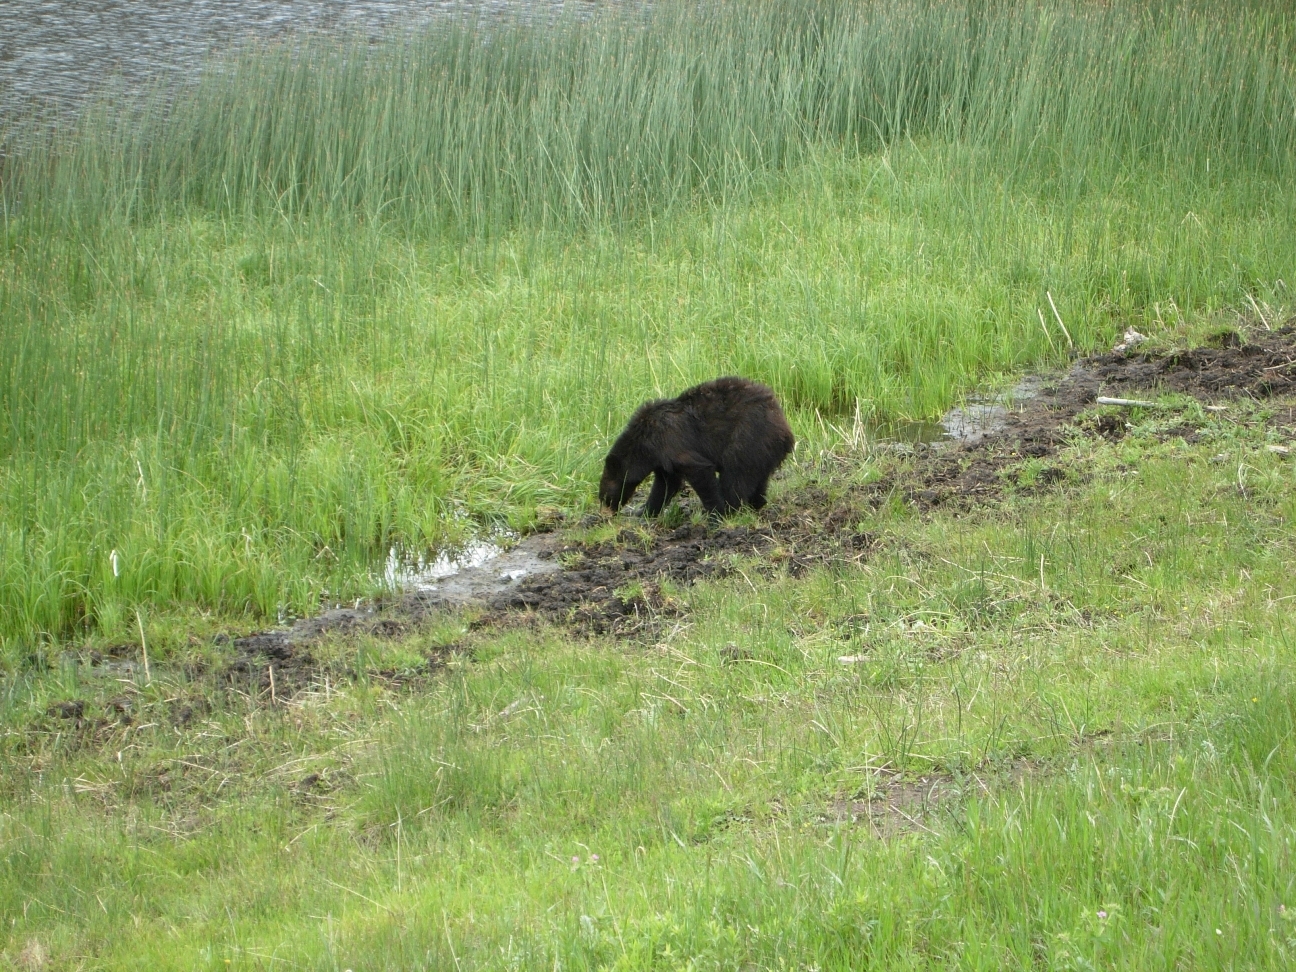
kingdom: Animalia
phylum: Chordata
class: Mammalia
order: Carnivora
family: Ursidae
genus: Ursus
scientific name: Ursus americanus
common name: American black bear
